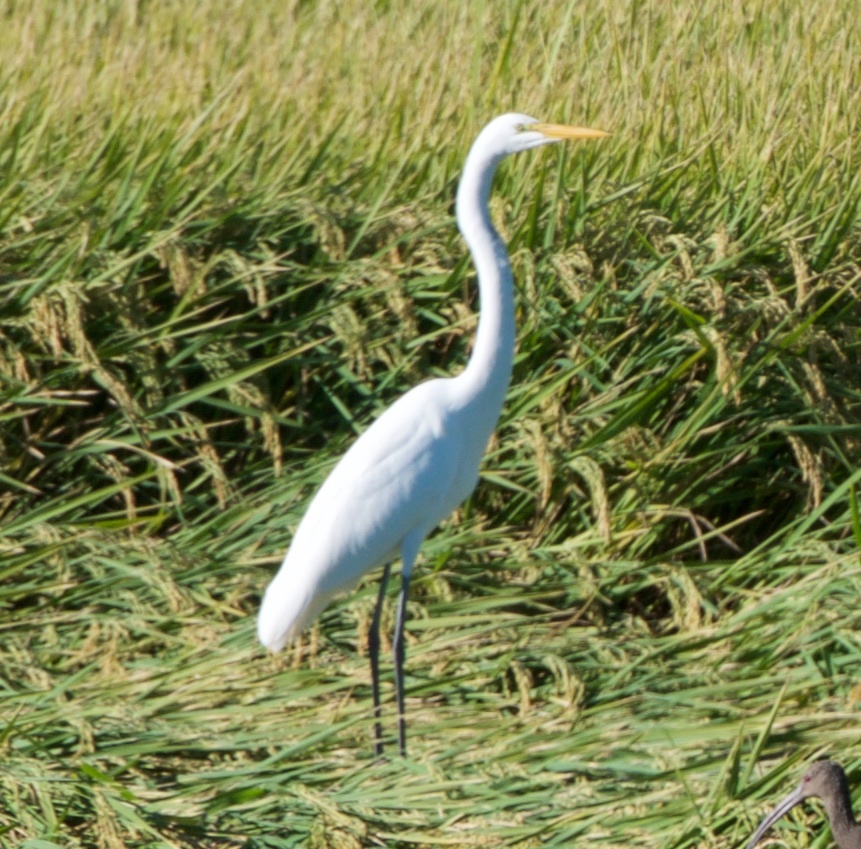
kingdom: Animalia
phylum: Chordata
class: Aves
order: Pelecaniformes
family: Ardeidae
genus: Ardea
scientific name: Ardea alba
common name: Great egret
